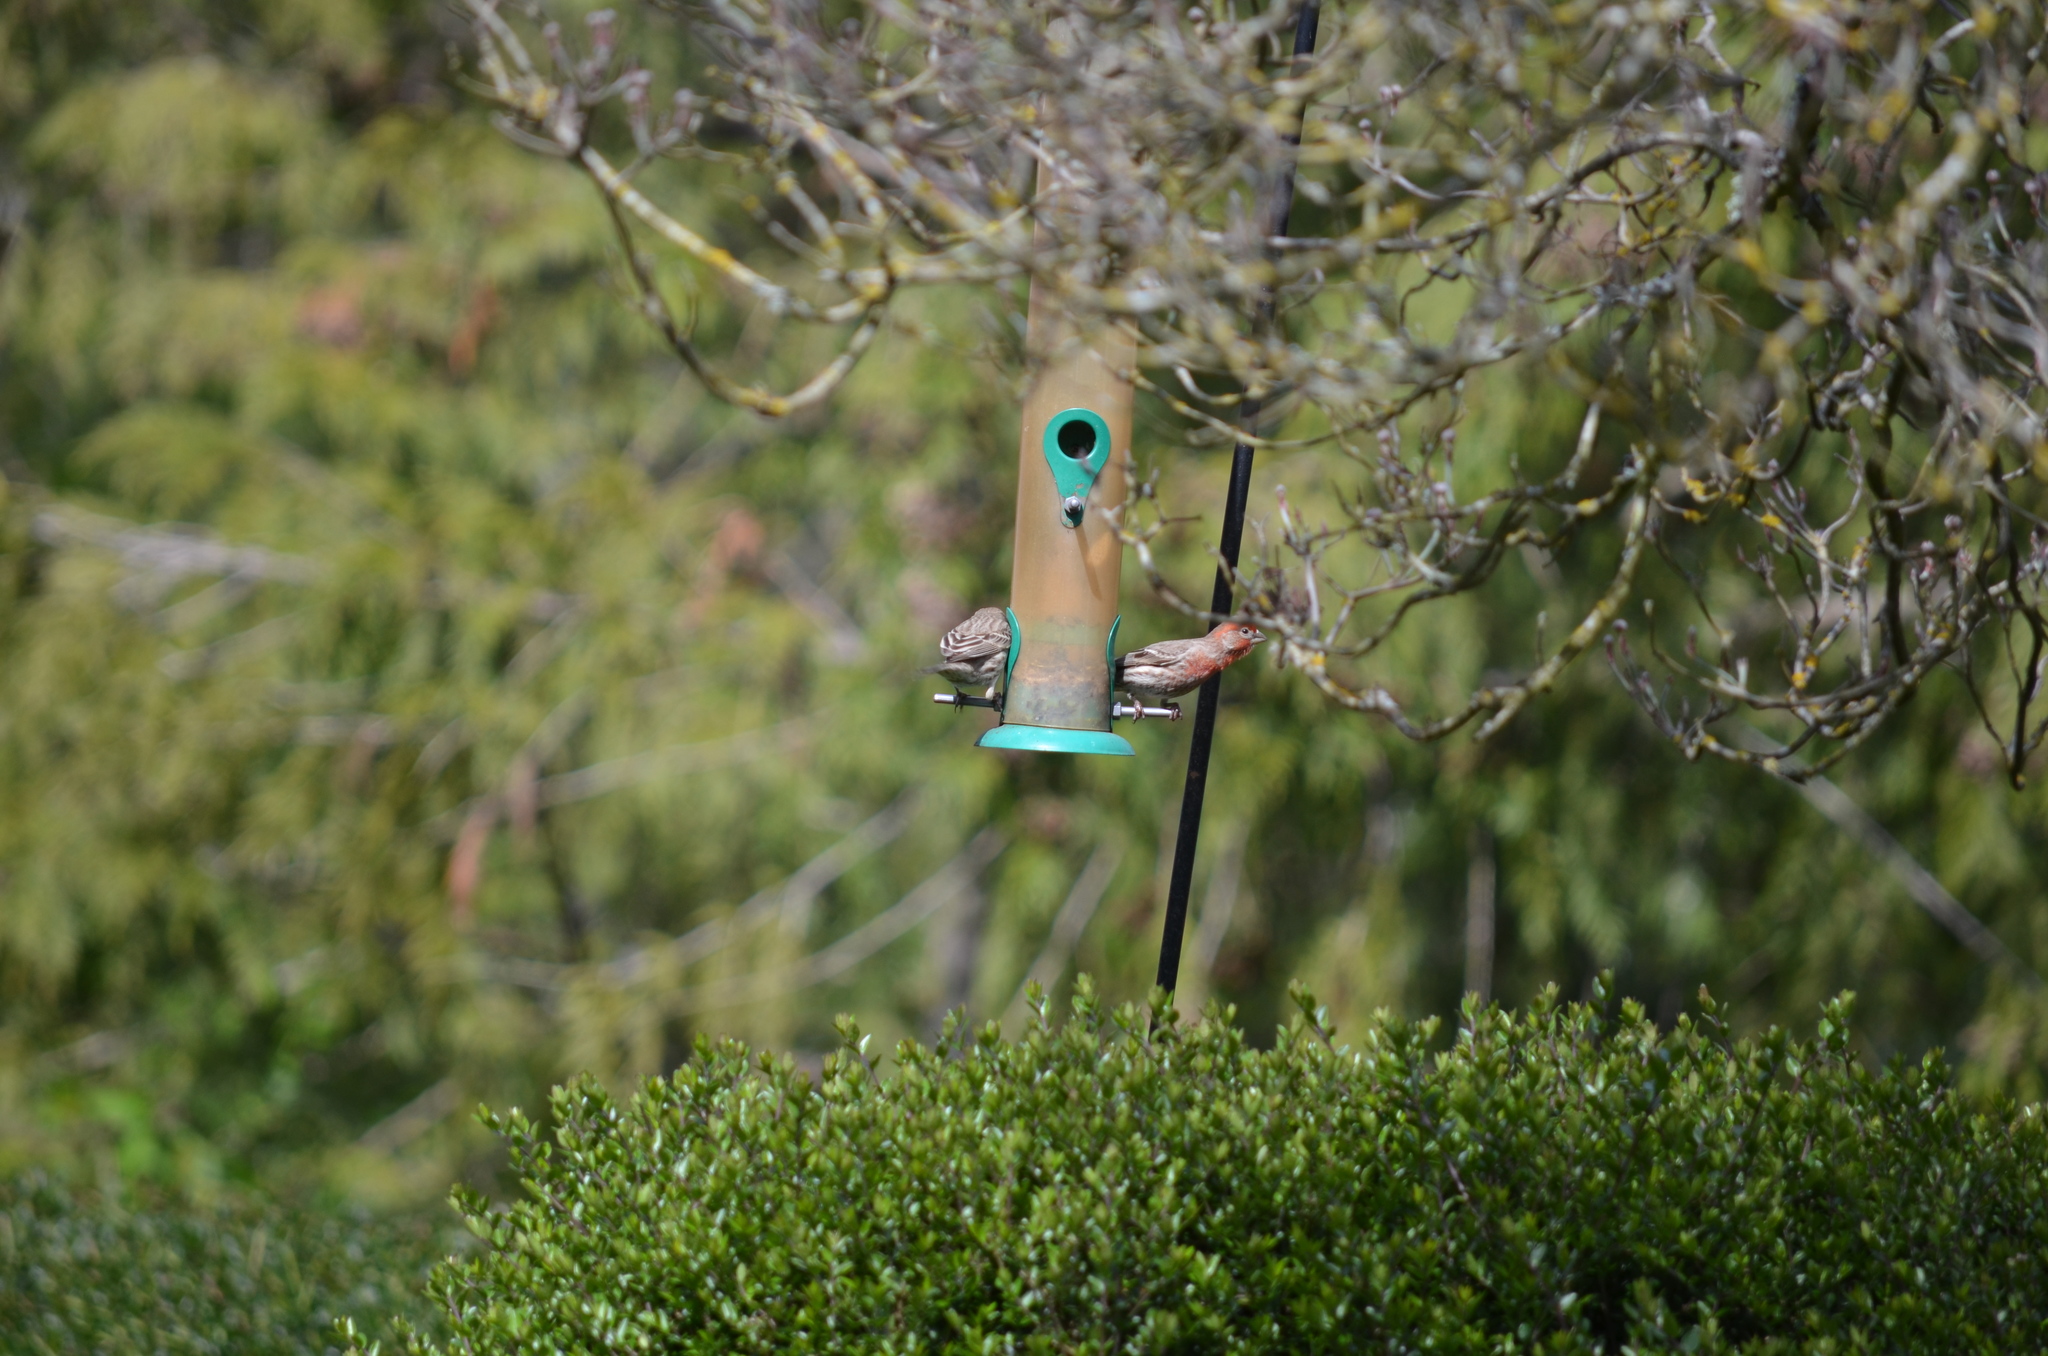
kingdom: Animalia
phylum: Chordata
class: Aves
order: Passeriformes
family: Fringillidae
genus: Haemorhous
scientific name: Haemorhous mexicanus
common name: House finch
